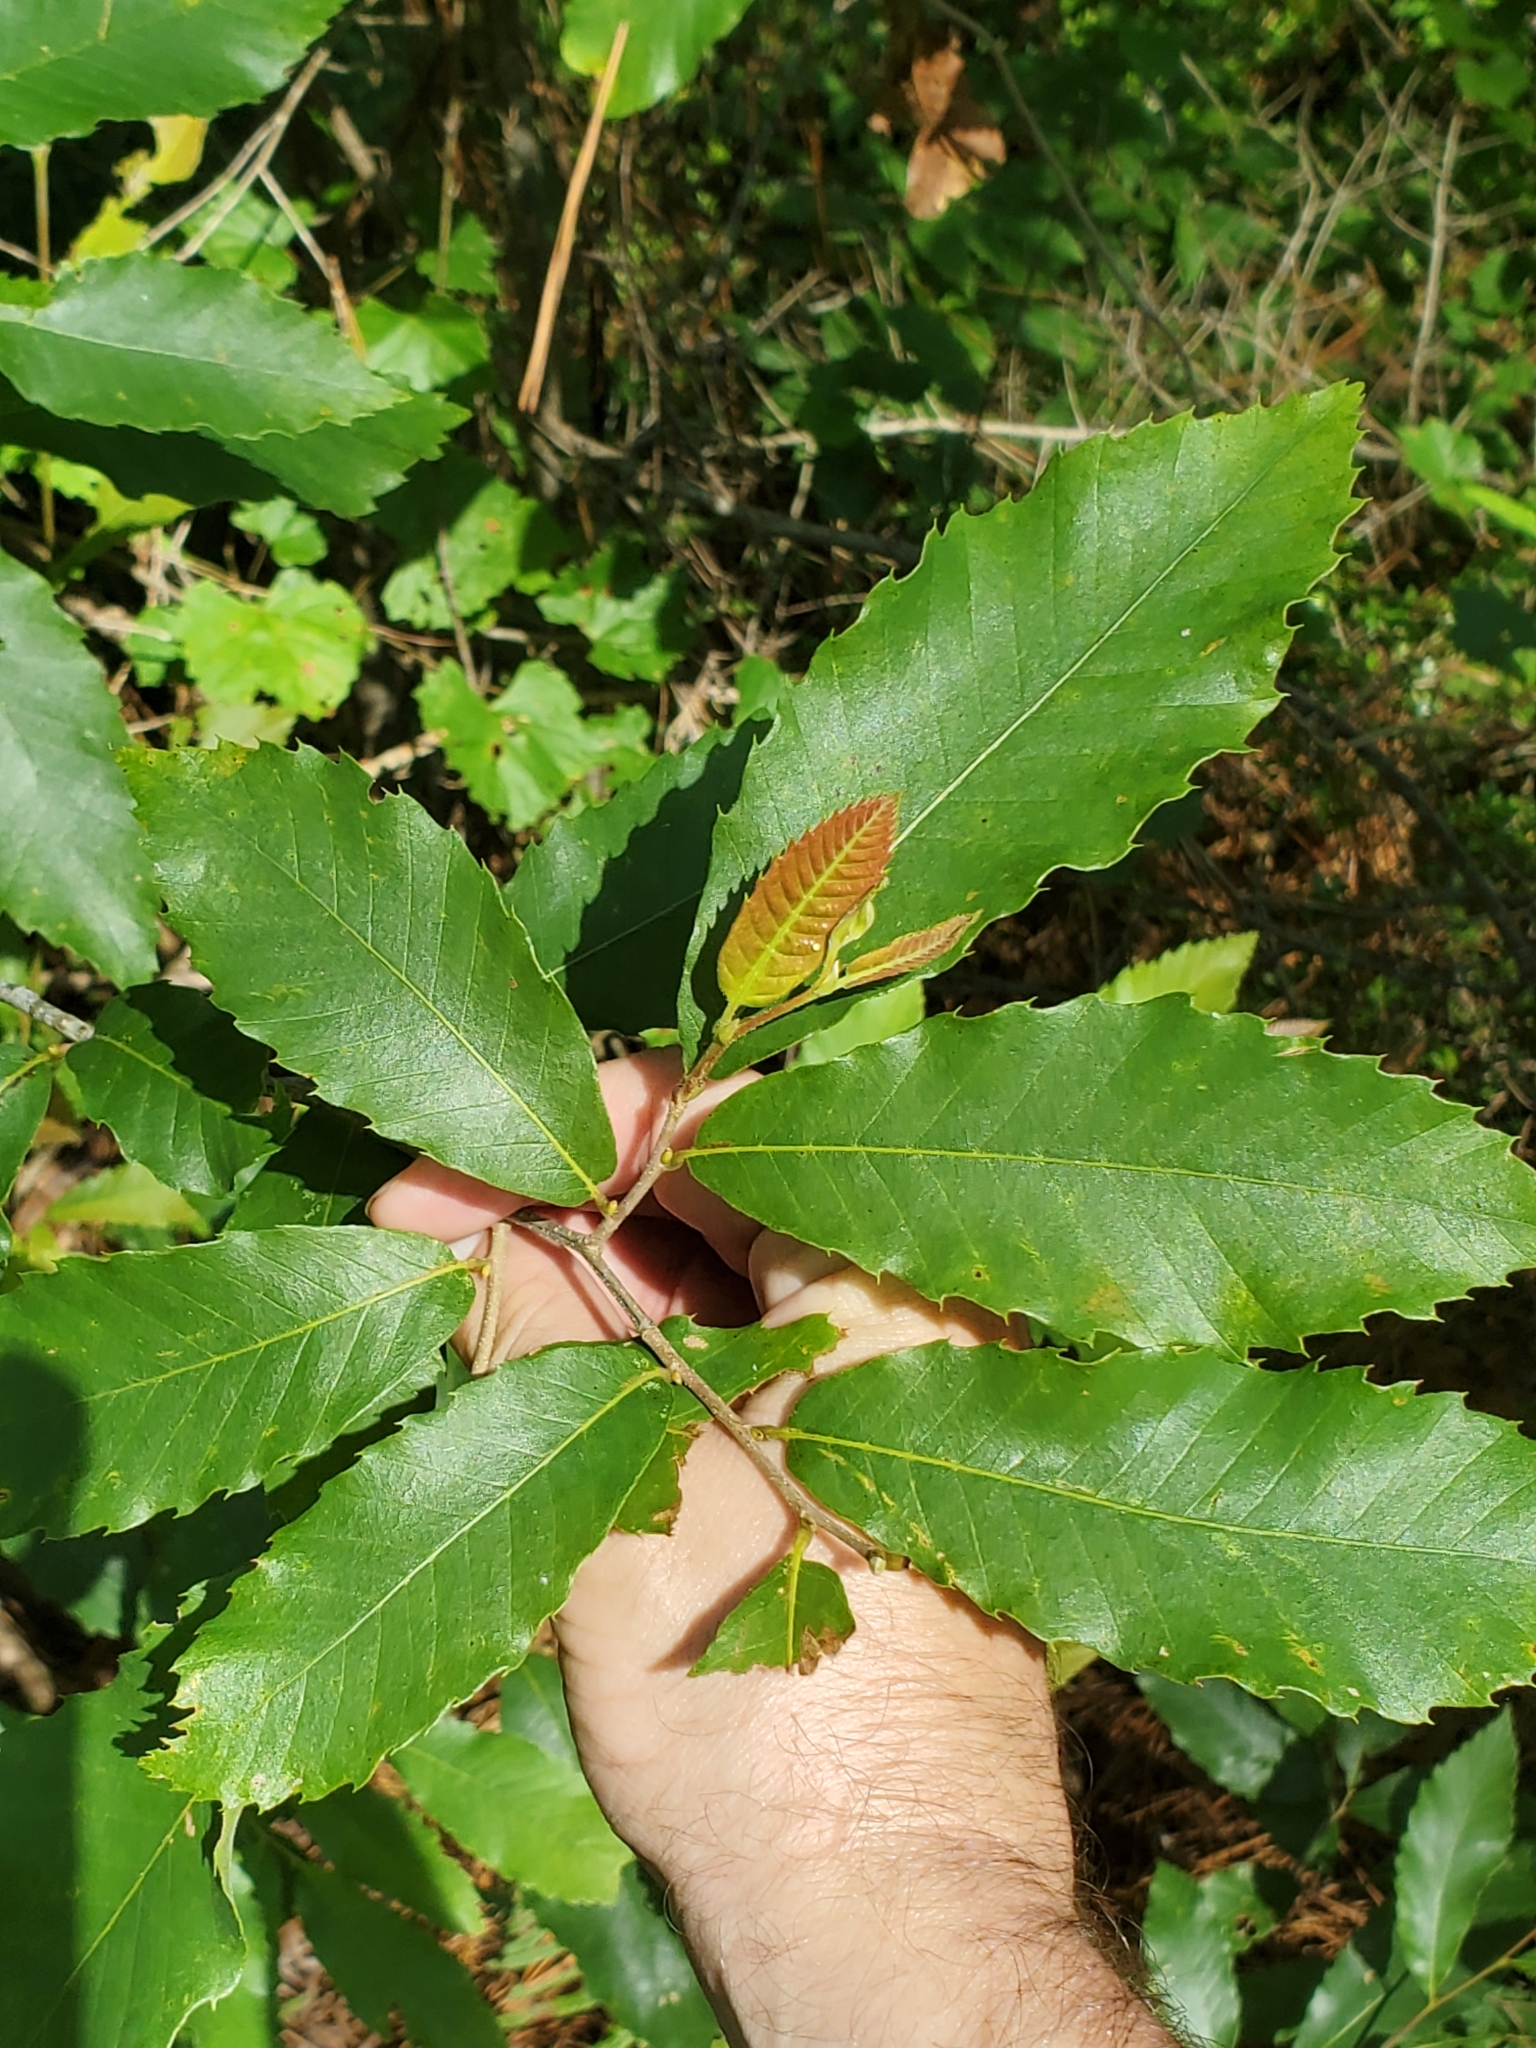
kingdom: Plantae
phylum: Tracheophyta
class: Magnoliopsida
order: Fagales
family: Fagaceae
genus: Castanea
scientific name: Castanea pumila
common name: Chinkapin
